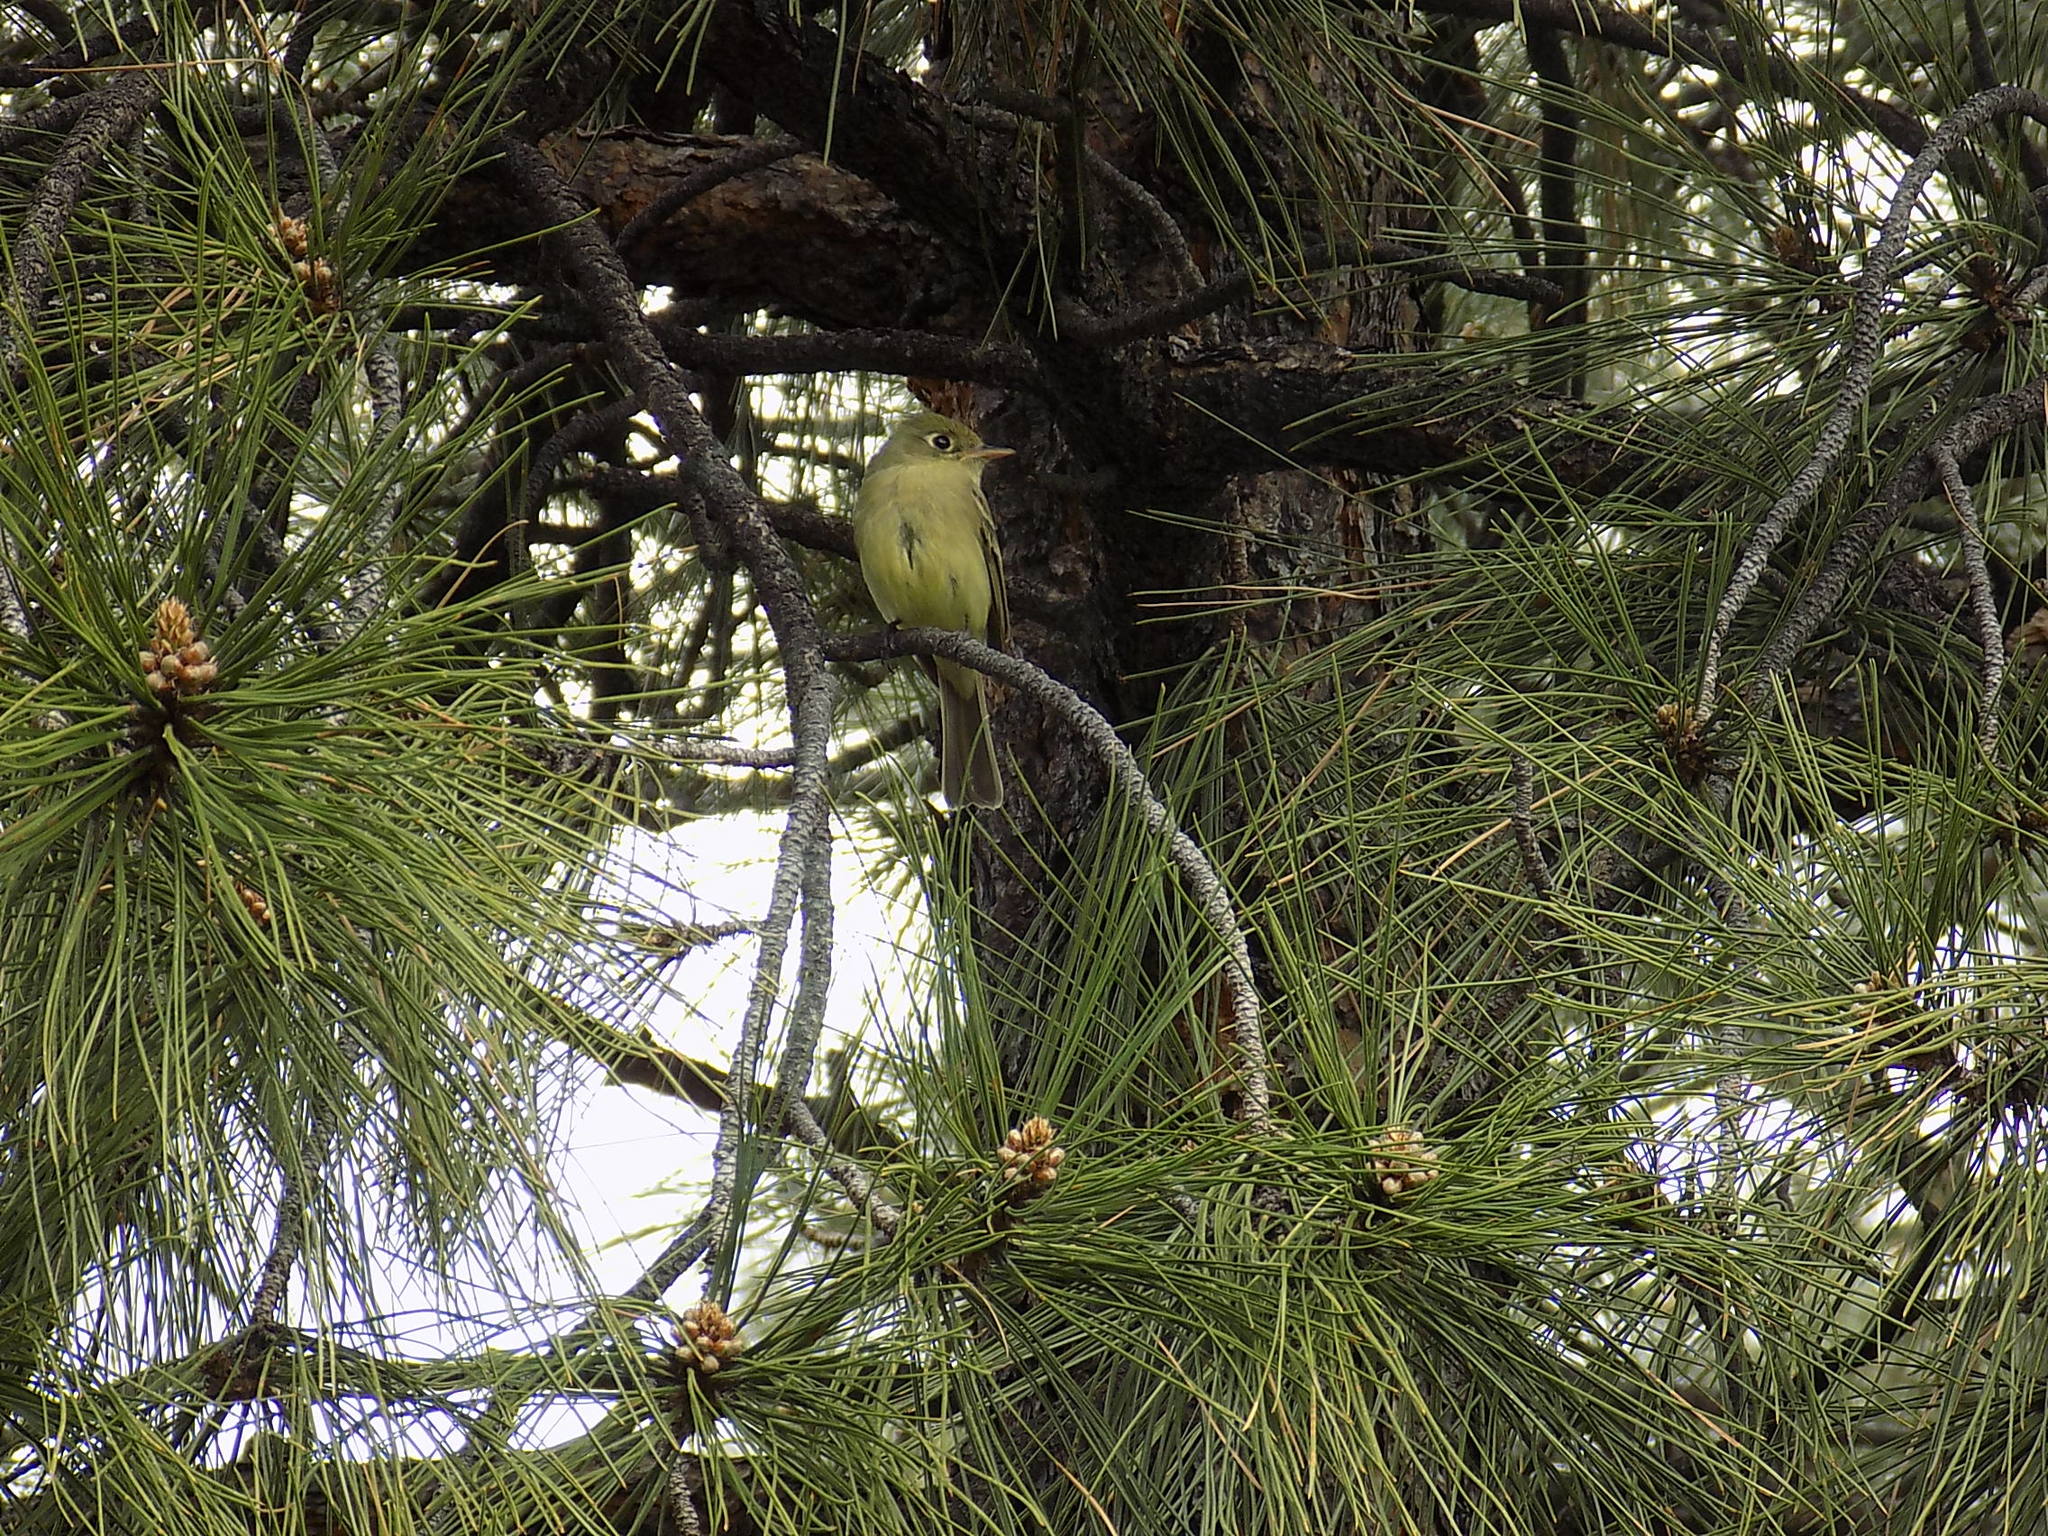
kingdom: Animalia
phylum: Chordata
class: Aves
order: Passeriformes
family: Tyrannidae
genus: Empidonax
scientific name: Empidonax difficilis
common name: Pacific-slope flycatcher
